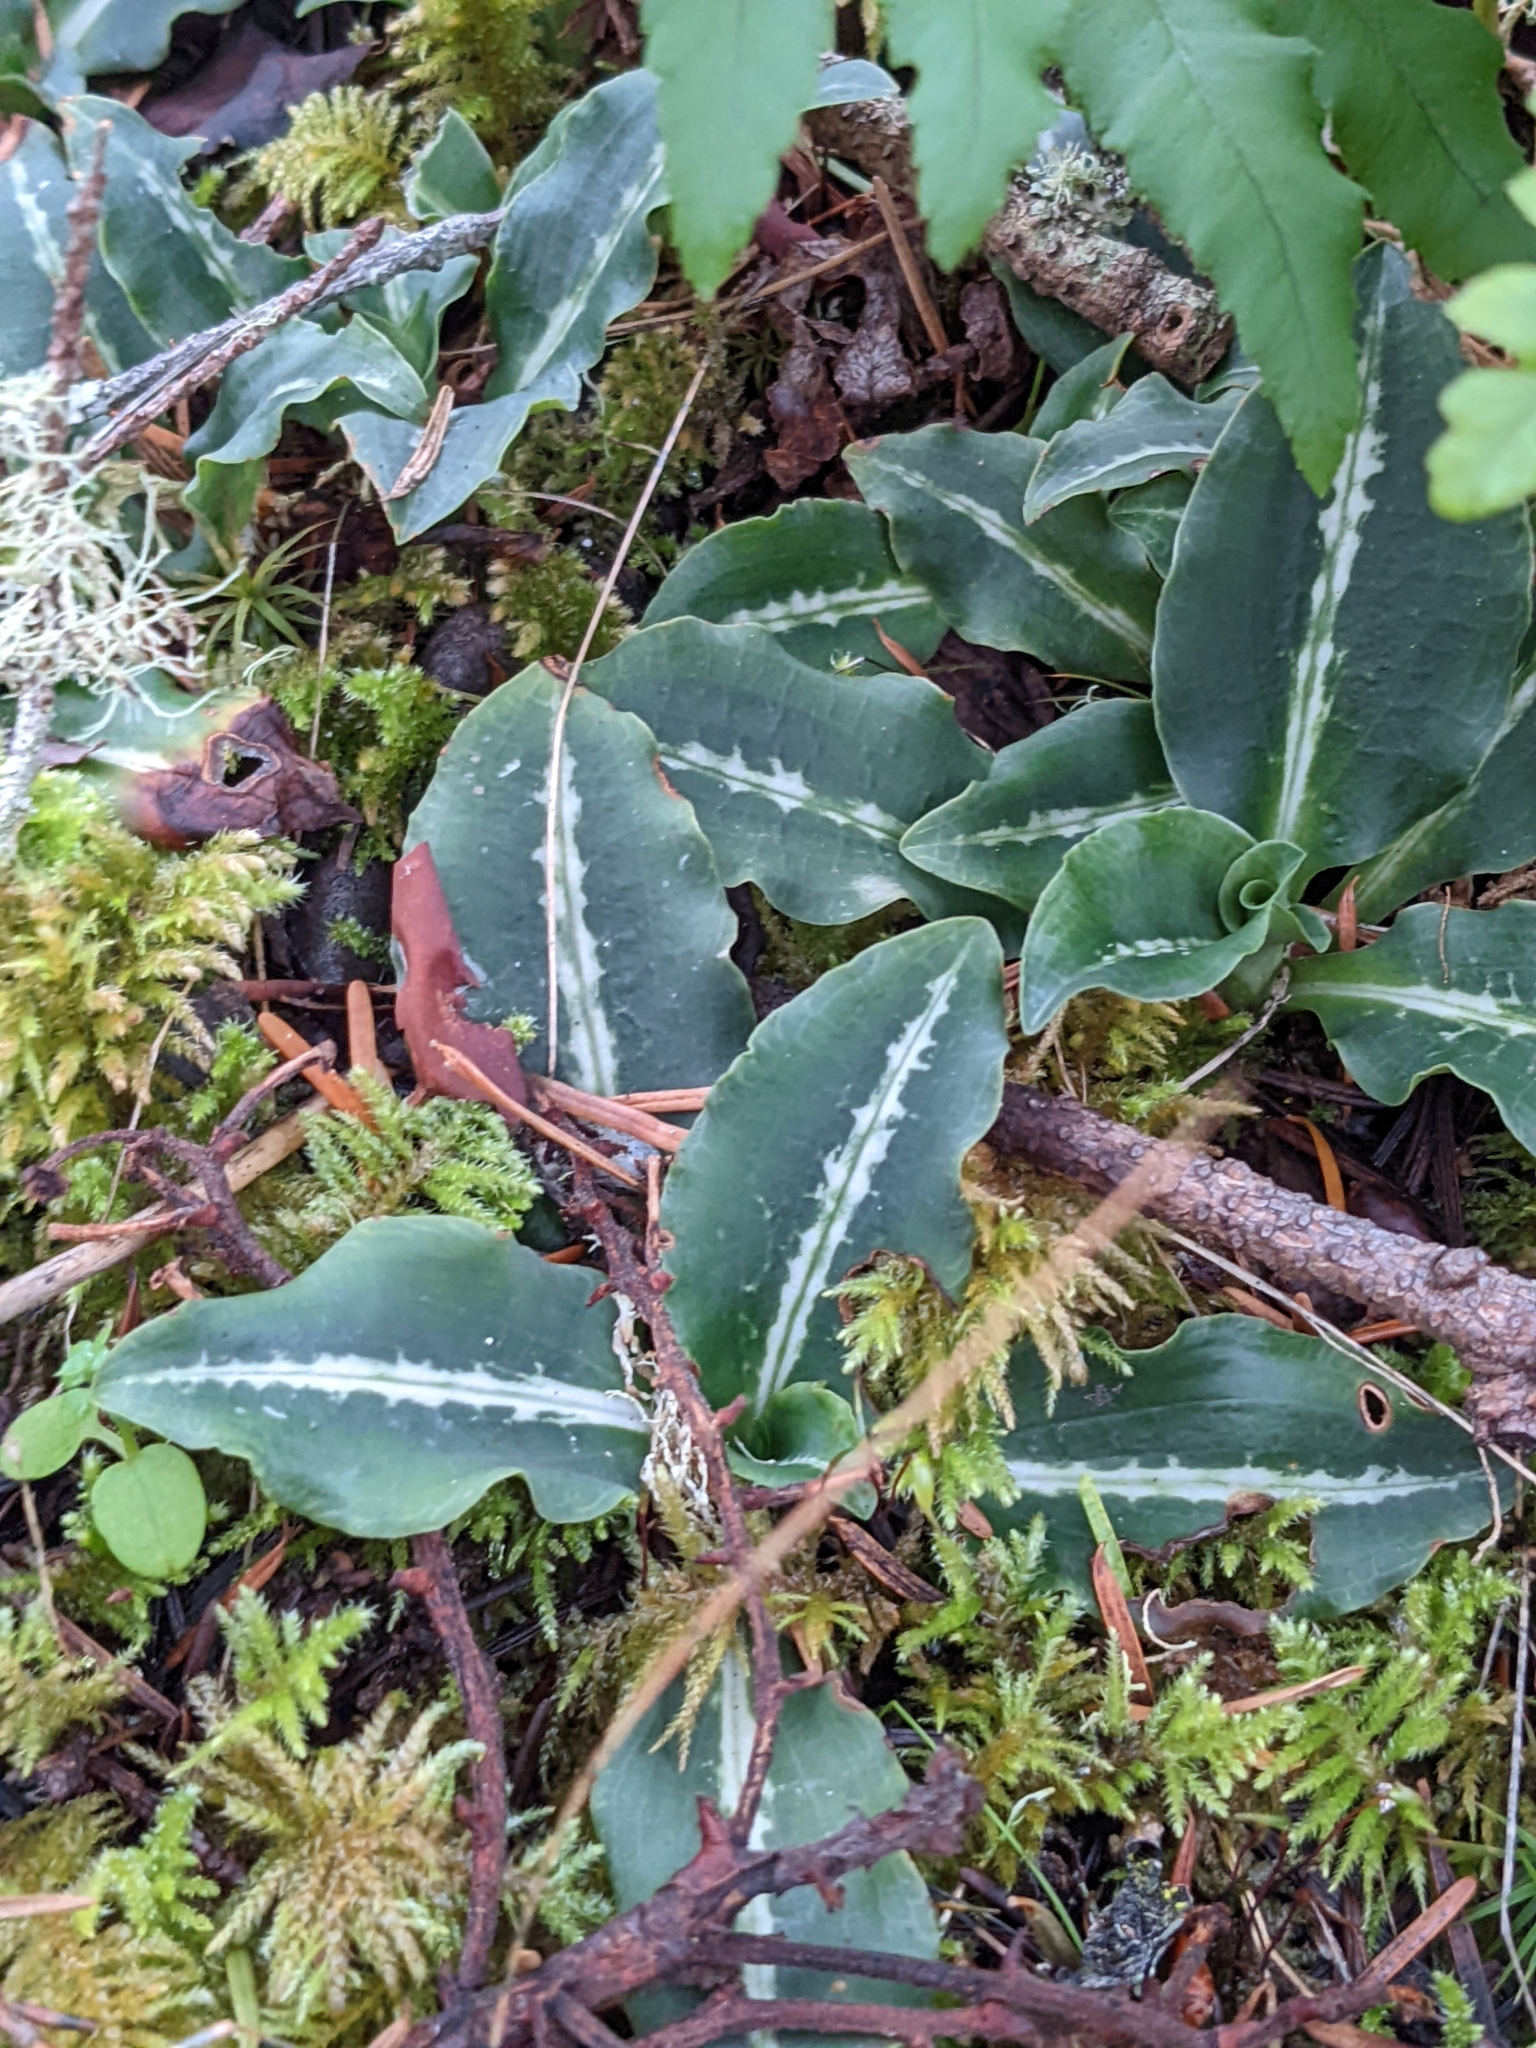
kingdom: Plantae
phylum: Tracheophyta
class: Liliopsida
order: Asparagales
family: Orchidaceae
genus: Goodyera
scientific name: Goodyera oblongifolia
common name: Giant rattlesnake-plantain
